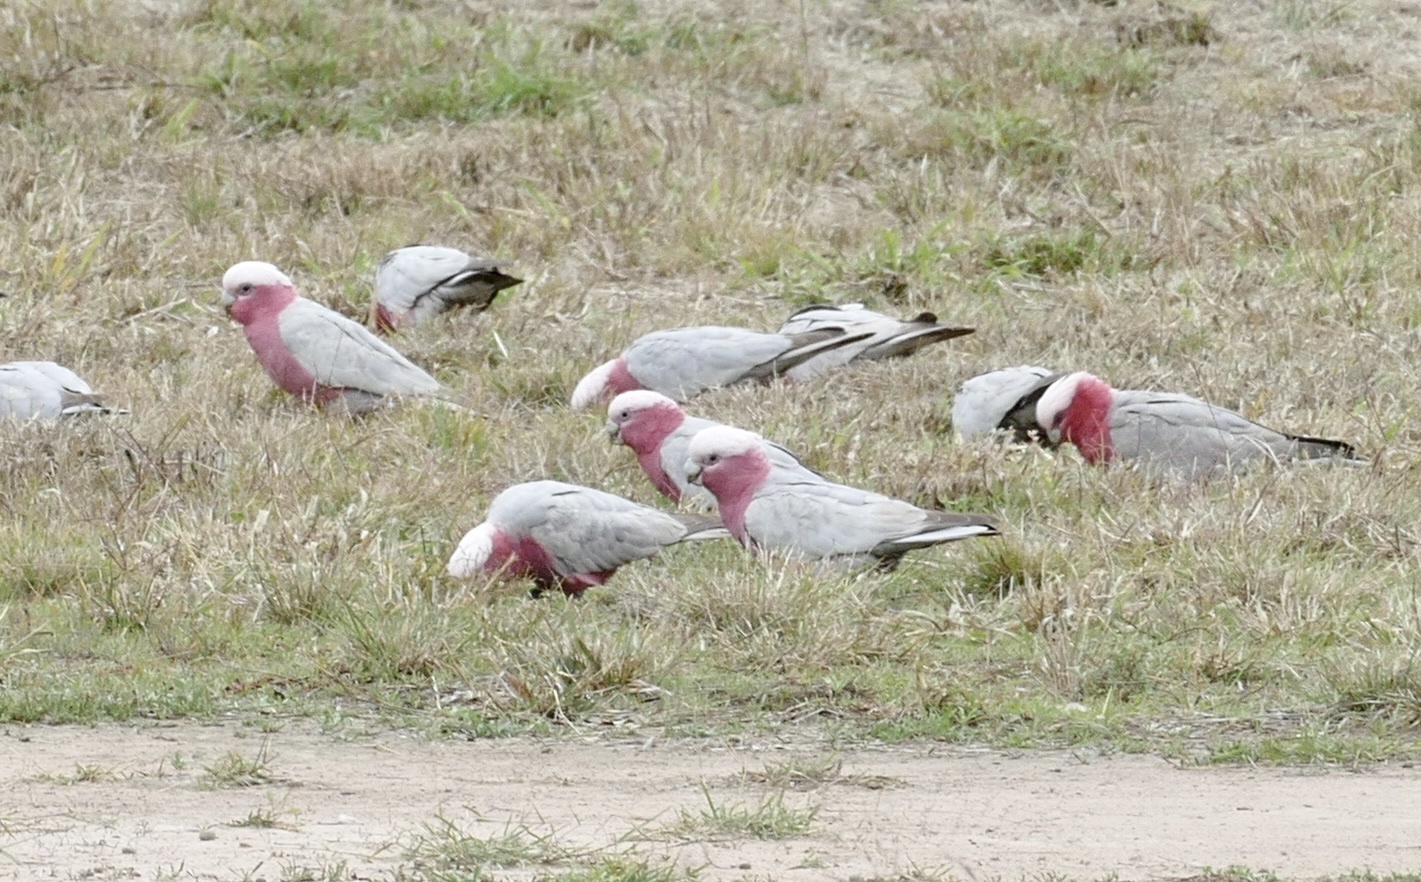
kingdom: Animalia
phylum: Chordata
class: Aves
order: Psittaciformes
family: Psittacidae
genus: Eolophus
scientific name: Eolophus roseicapilla
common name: Galah
